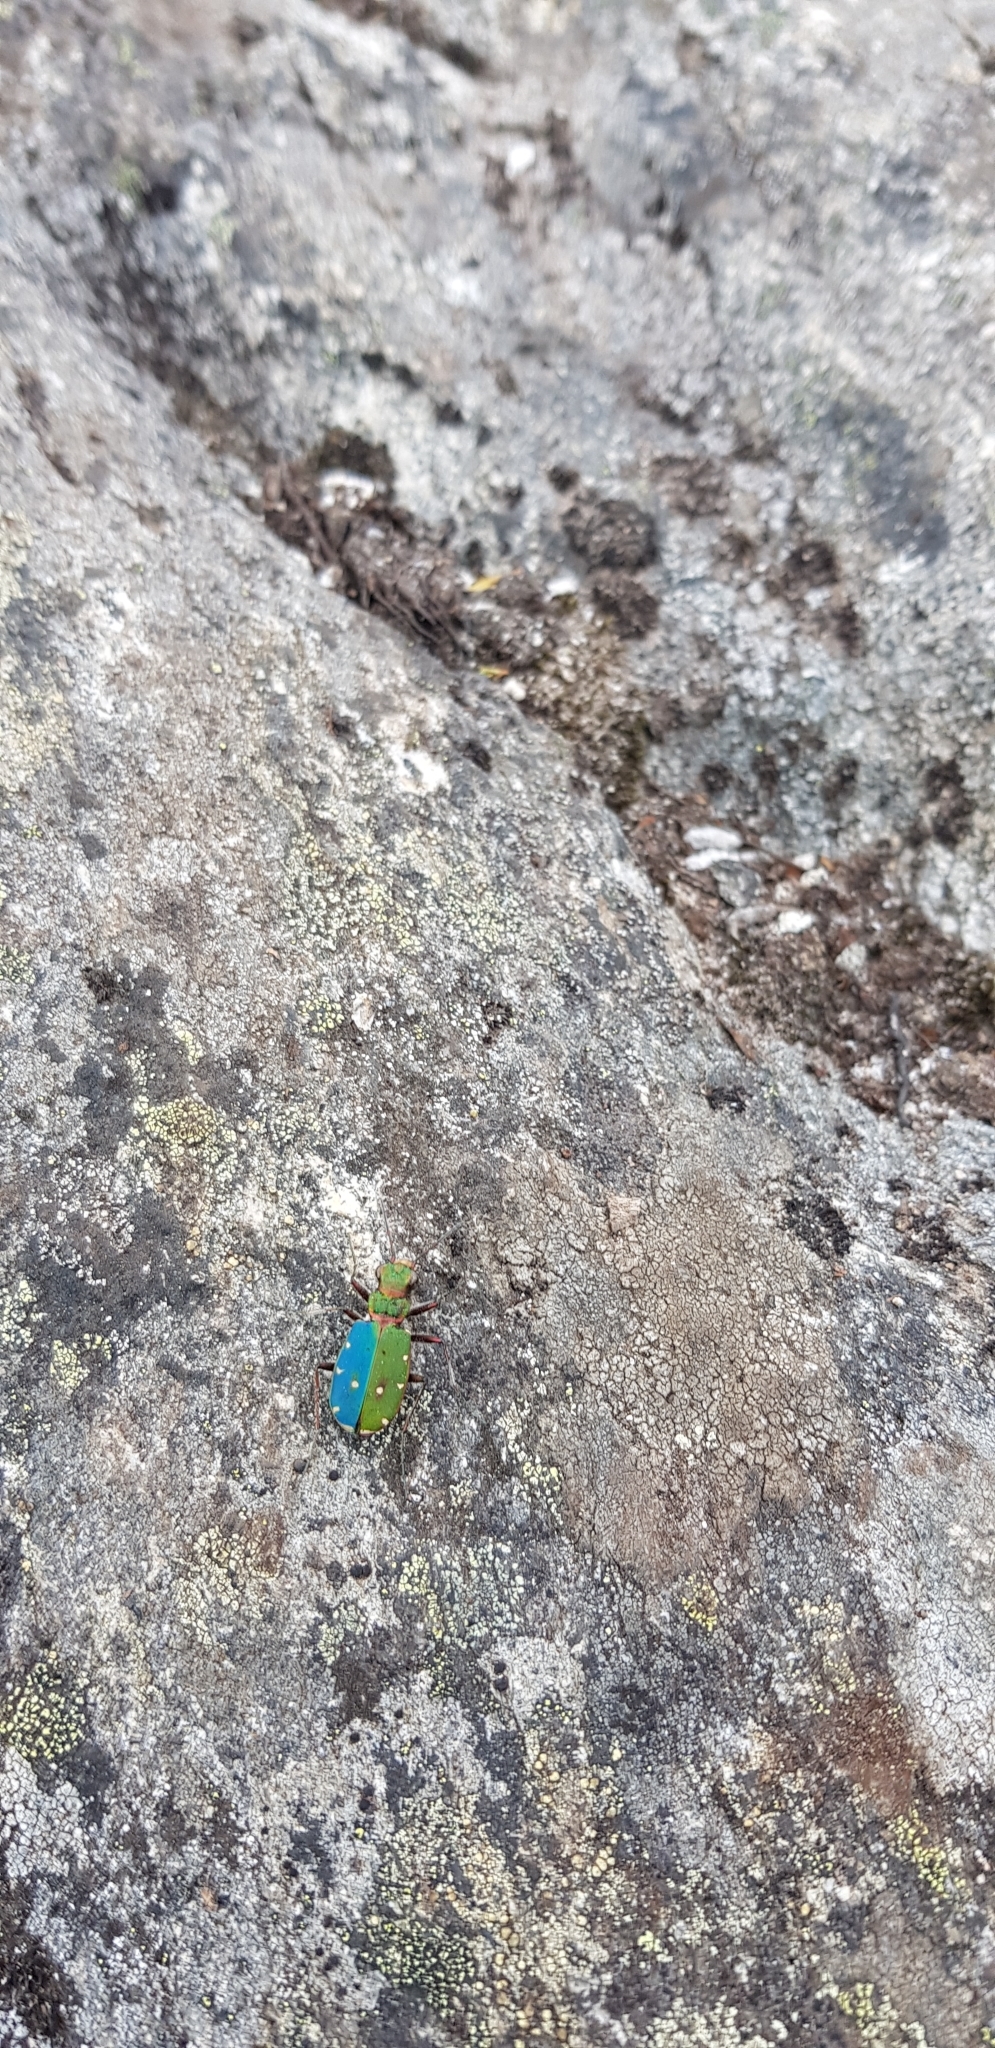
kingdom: Animalia
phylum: Arthropoda
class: Insecta
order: Coleoptera
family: Carabidae
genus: Cicindela
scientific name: Cicindela campestris
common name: Common tiger beetle
